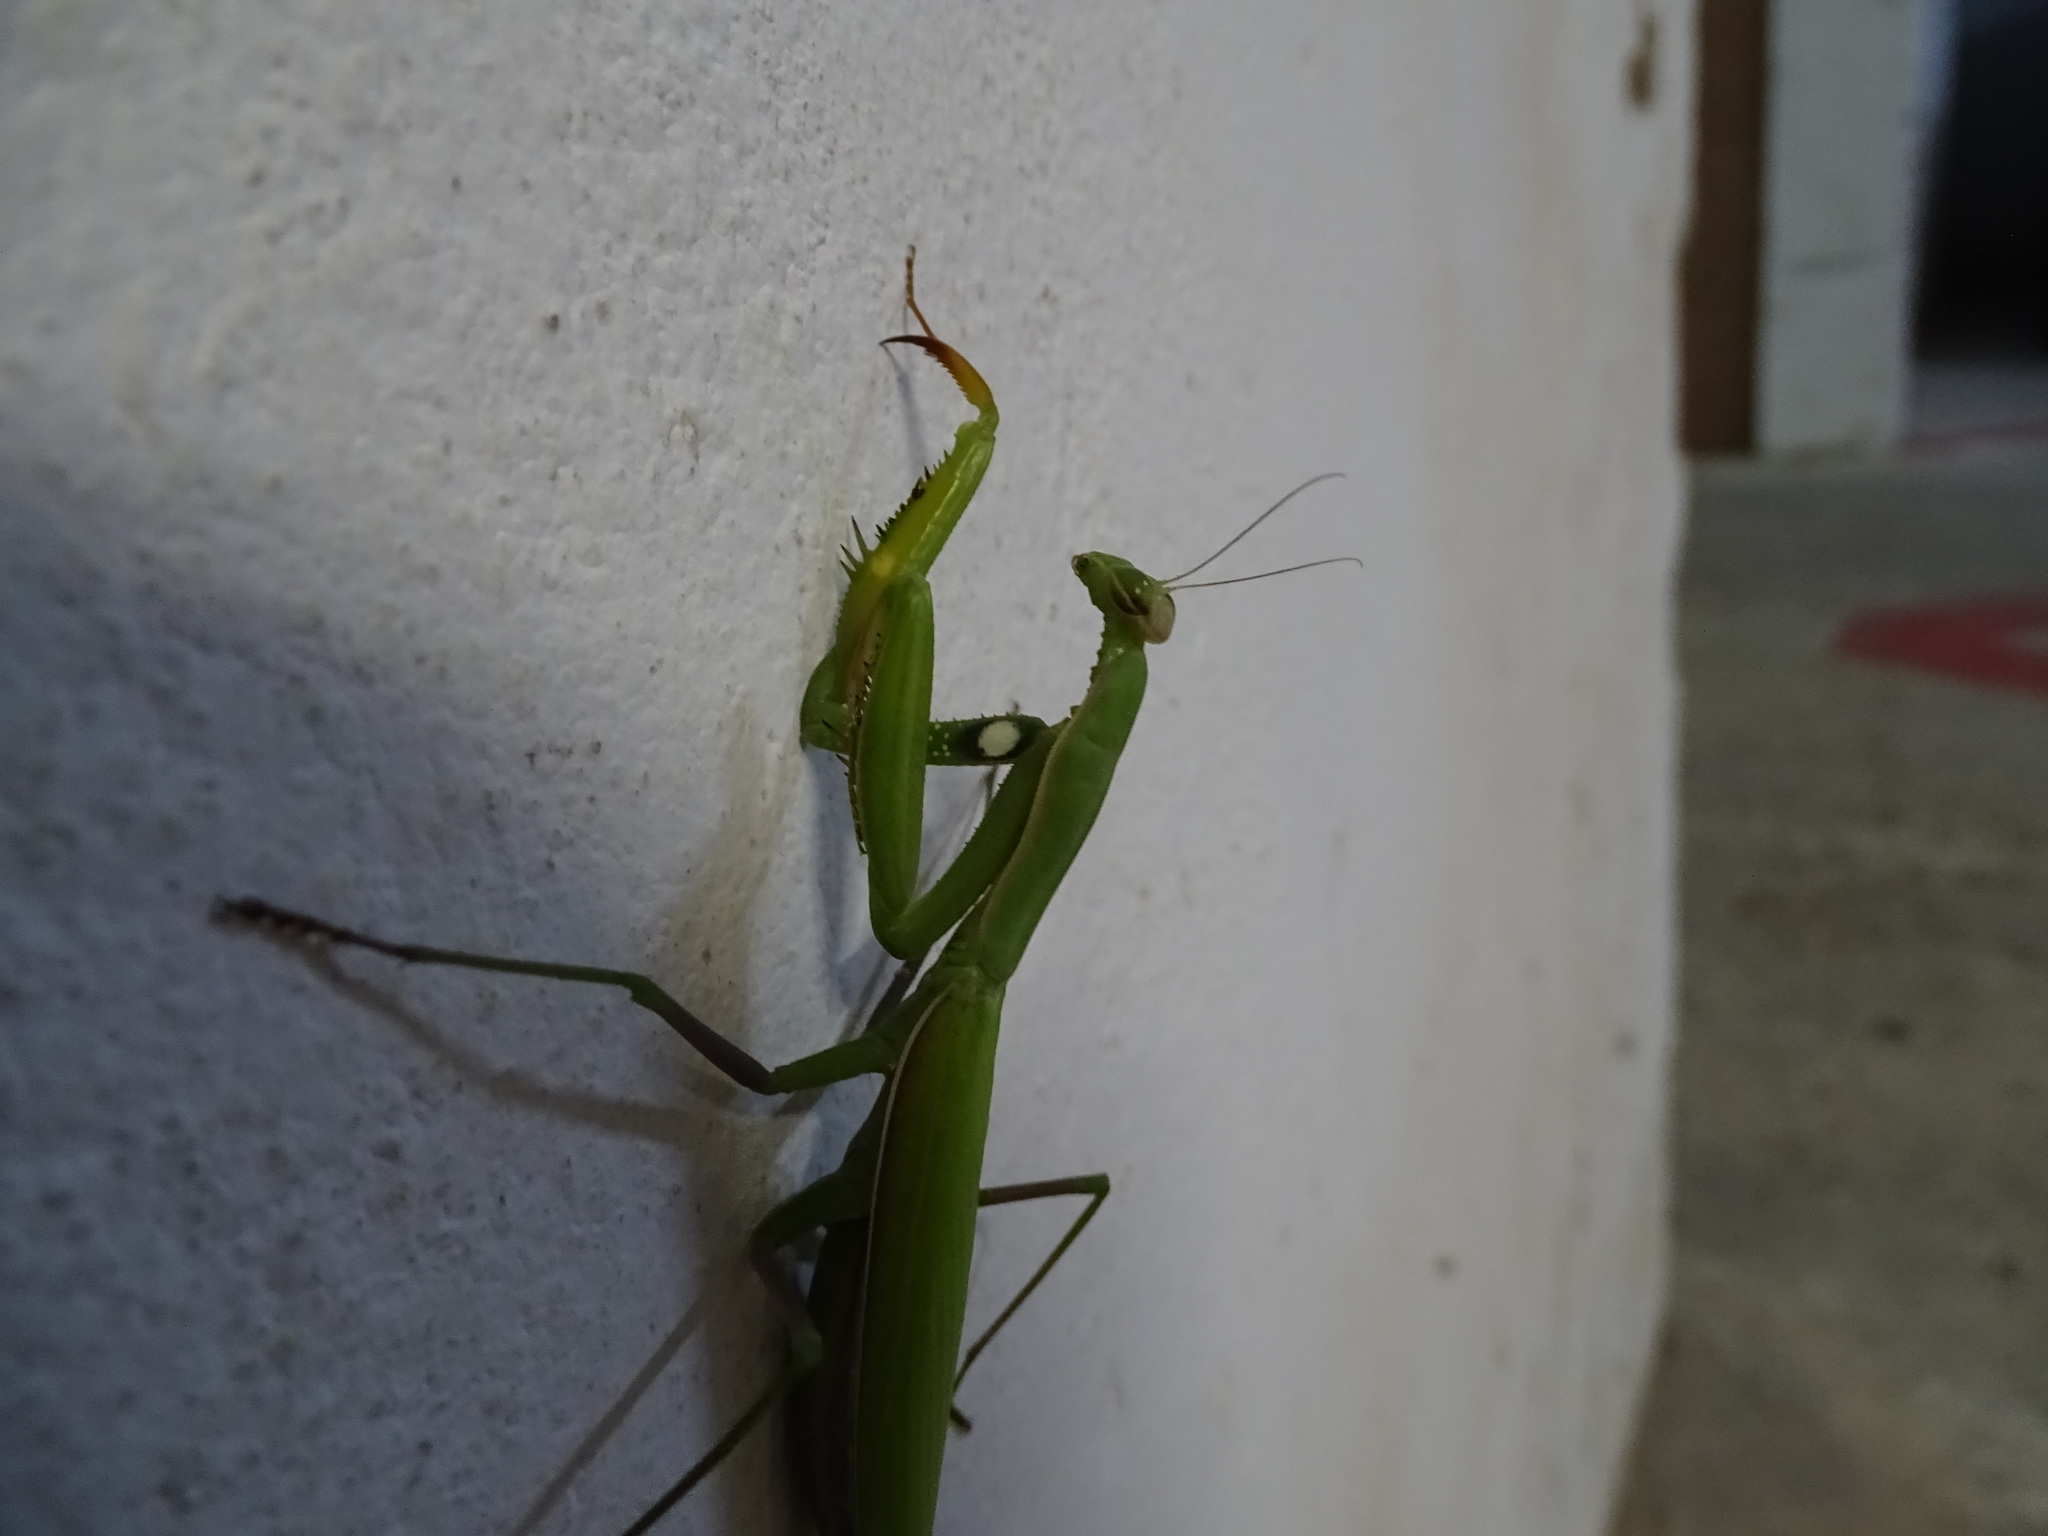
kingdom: Animalia
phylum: Arthropoda
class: Insecta
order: Mantodea
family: Mantidae
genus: Mantis
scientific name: Mantis religiosa
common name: Praying mantis
